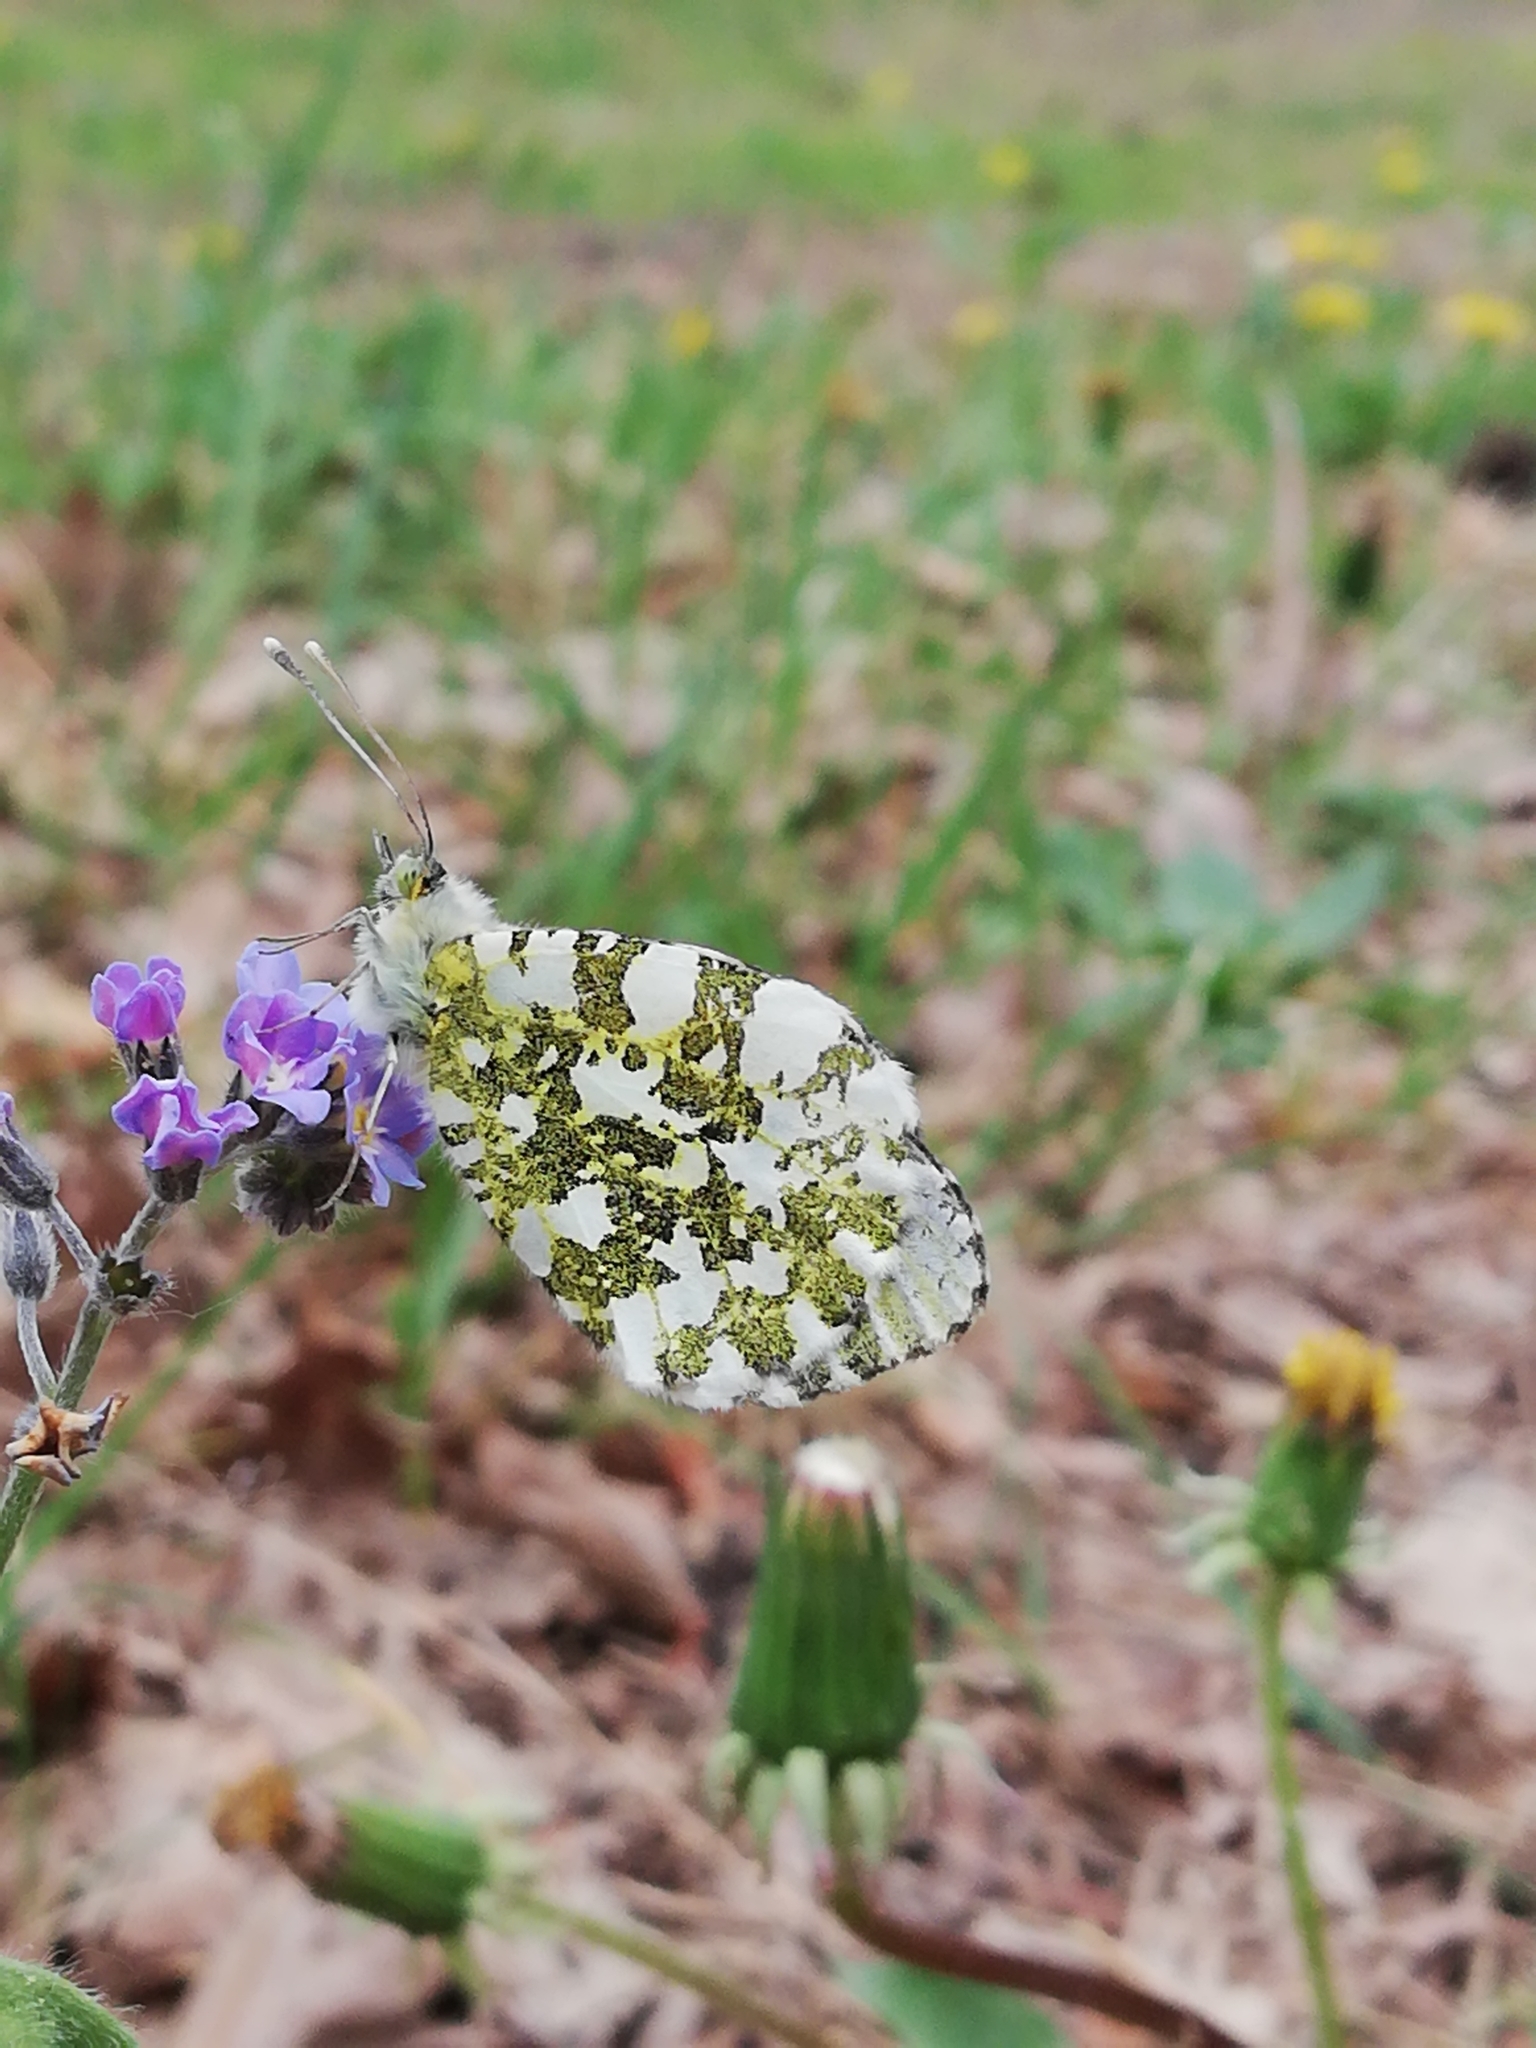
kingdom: Animalia
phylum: Arthropoda
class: Insecta
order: Lepidoptera
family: Pieridae
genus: Anthocharis
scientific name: Anthocharis cardamines
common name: Orange-tip
